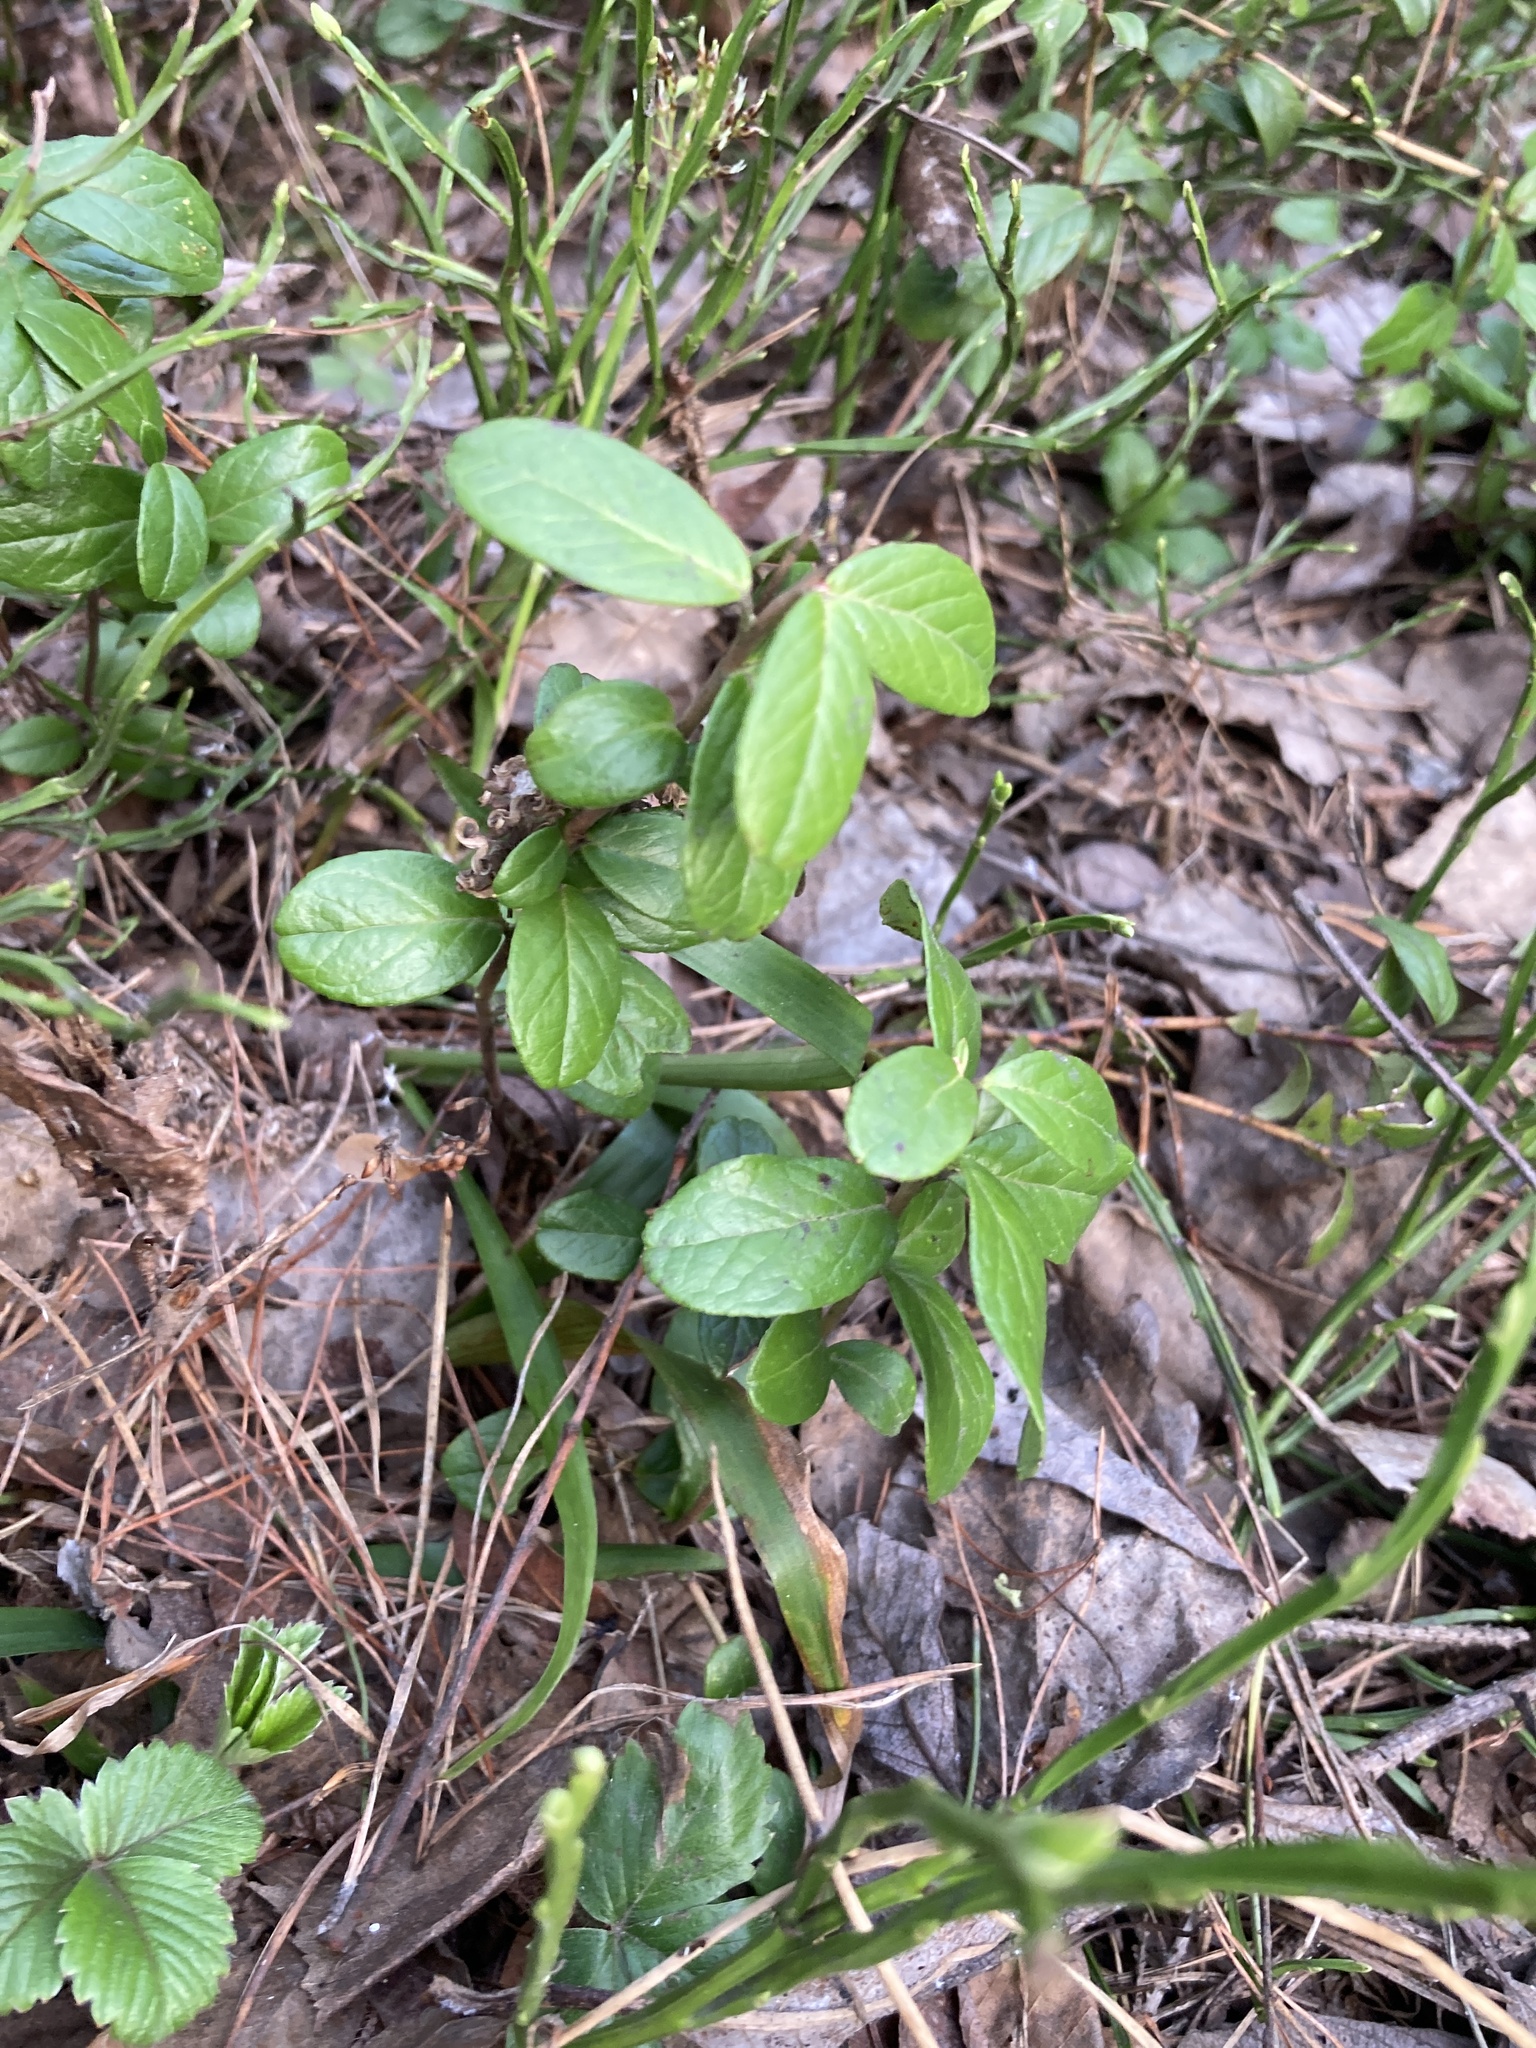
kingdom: Plantae
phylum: Tracheophyta
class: Magnoliopsida
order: Ericales
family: Ericaceae
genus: Vaccinium
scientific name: Vaccinium vitis-idaea
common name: Cowberry
